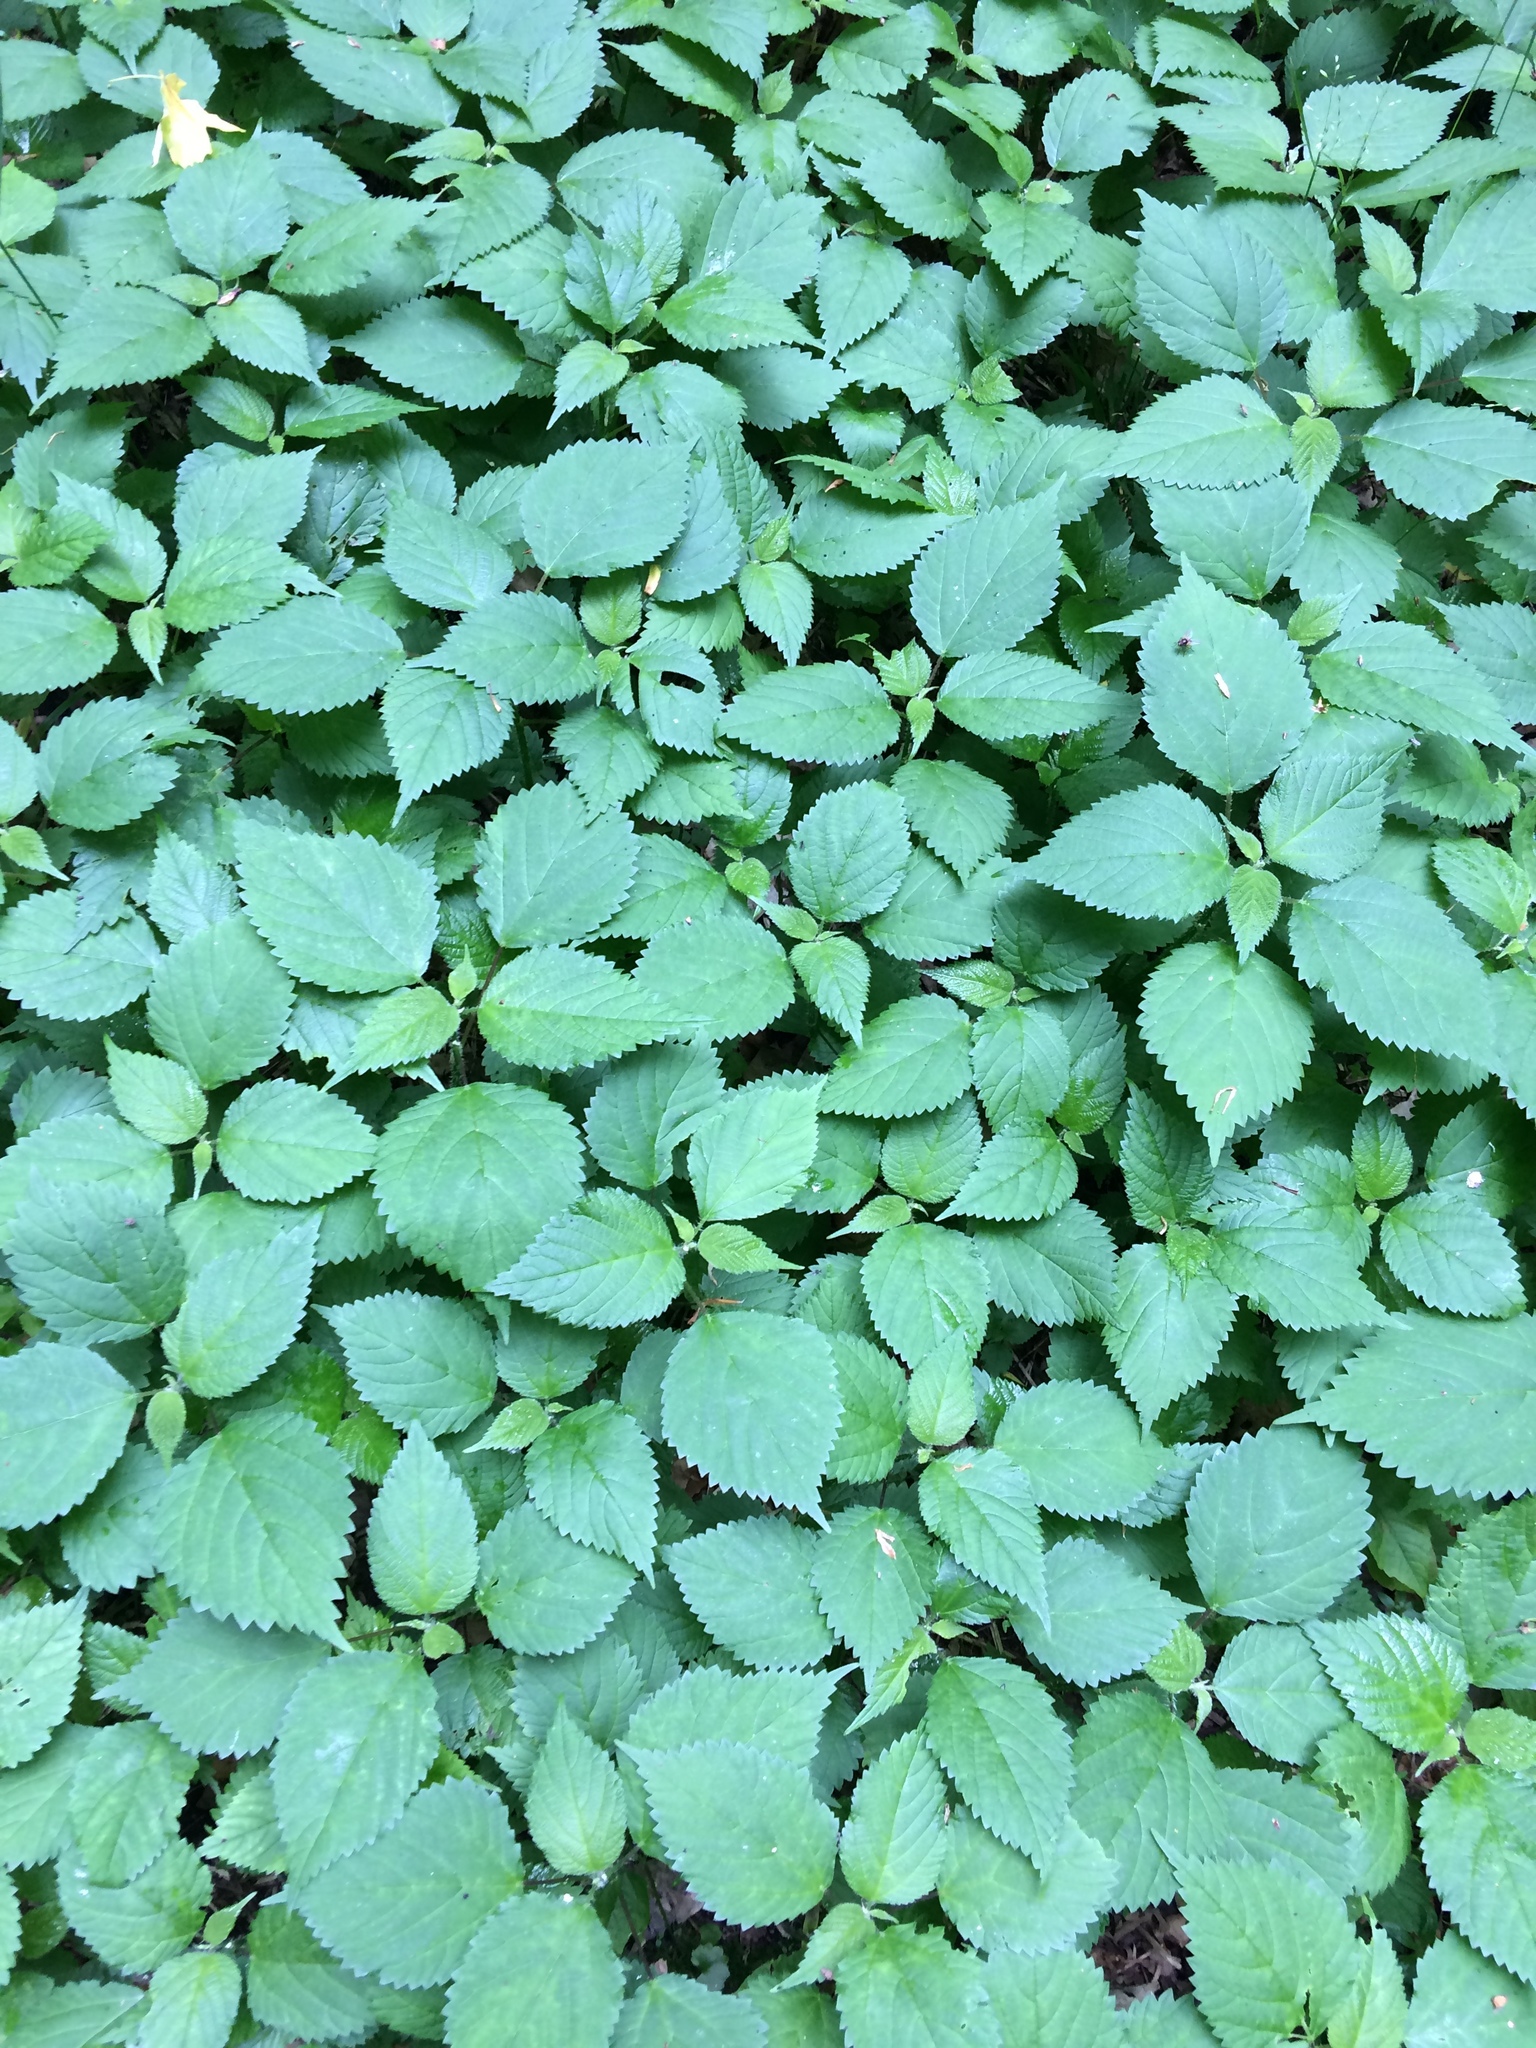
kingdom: Plantae
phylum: Tracheophyta
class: Magnoliopsida
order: Rosales
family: Urticaceae
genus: Laportea
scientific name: Laportea canadensis
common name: Canada nettle
